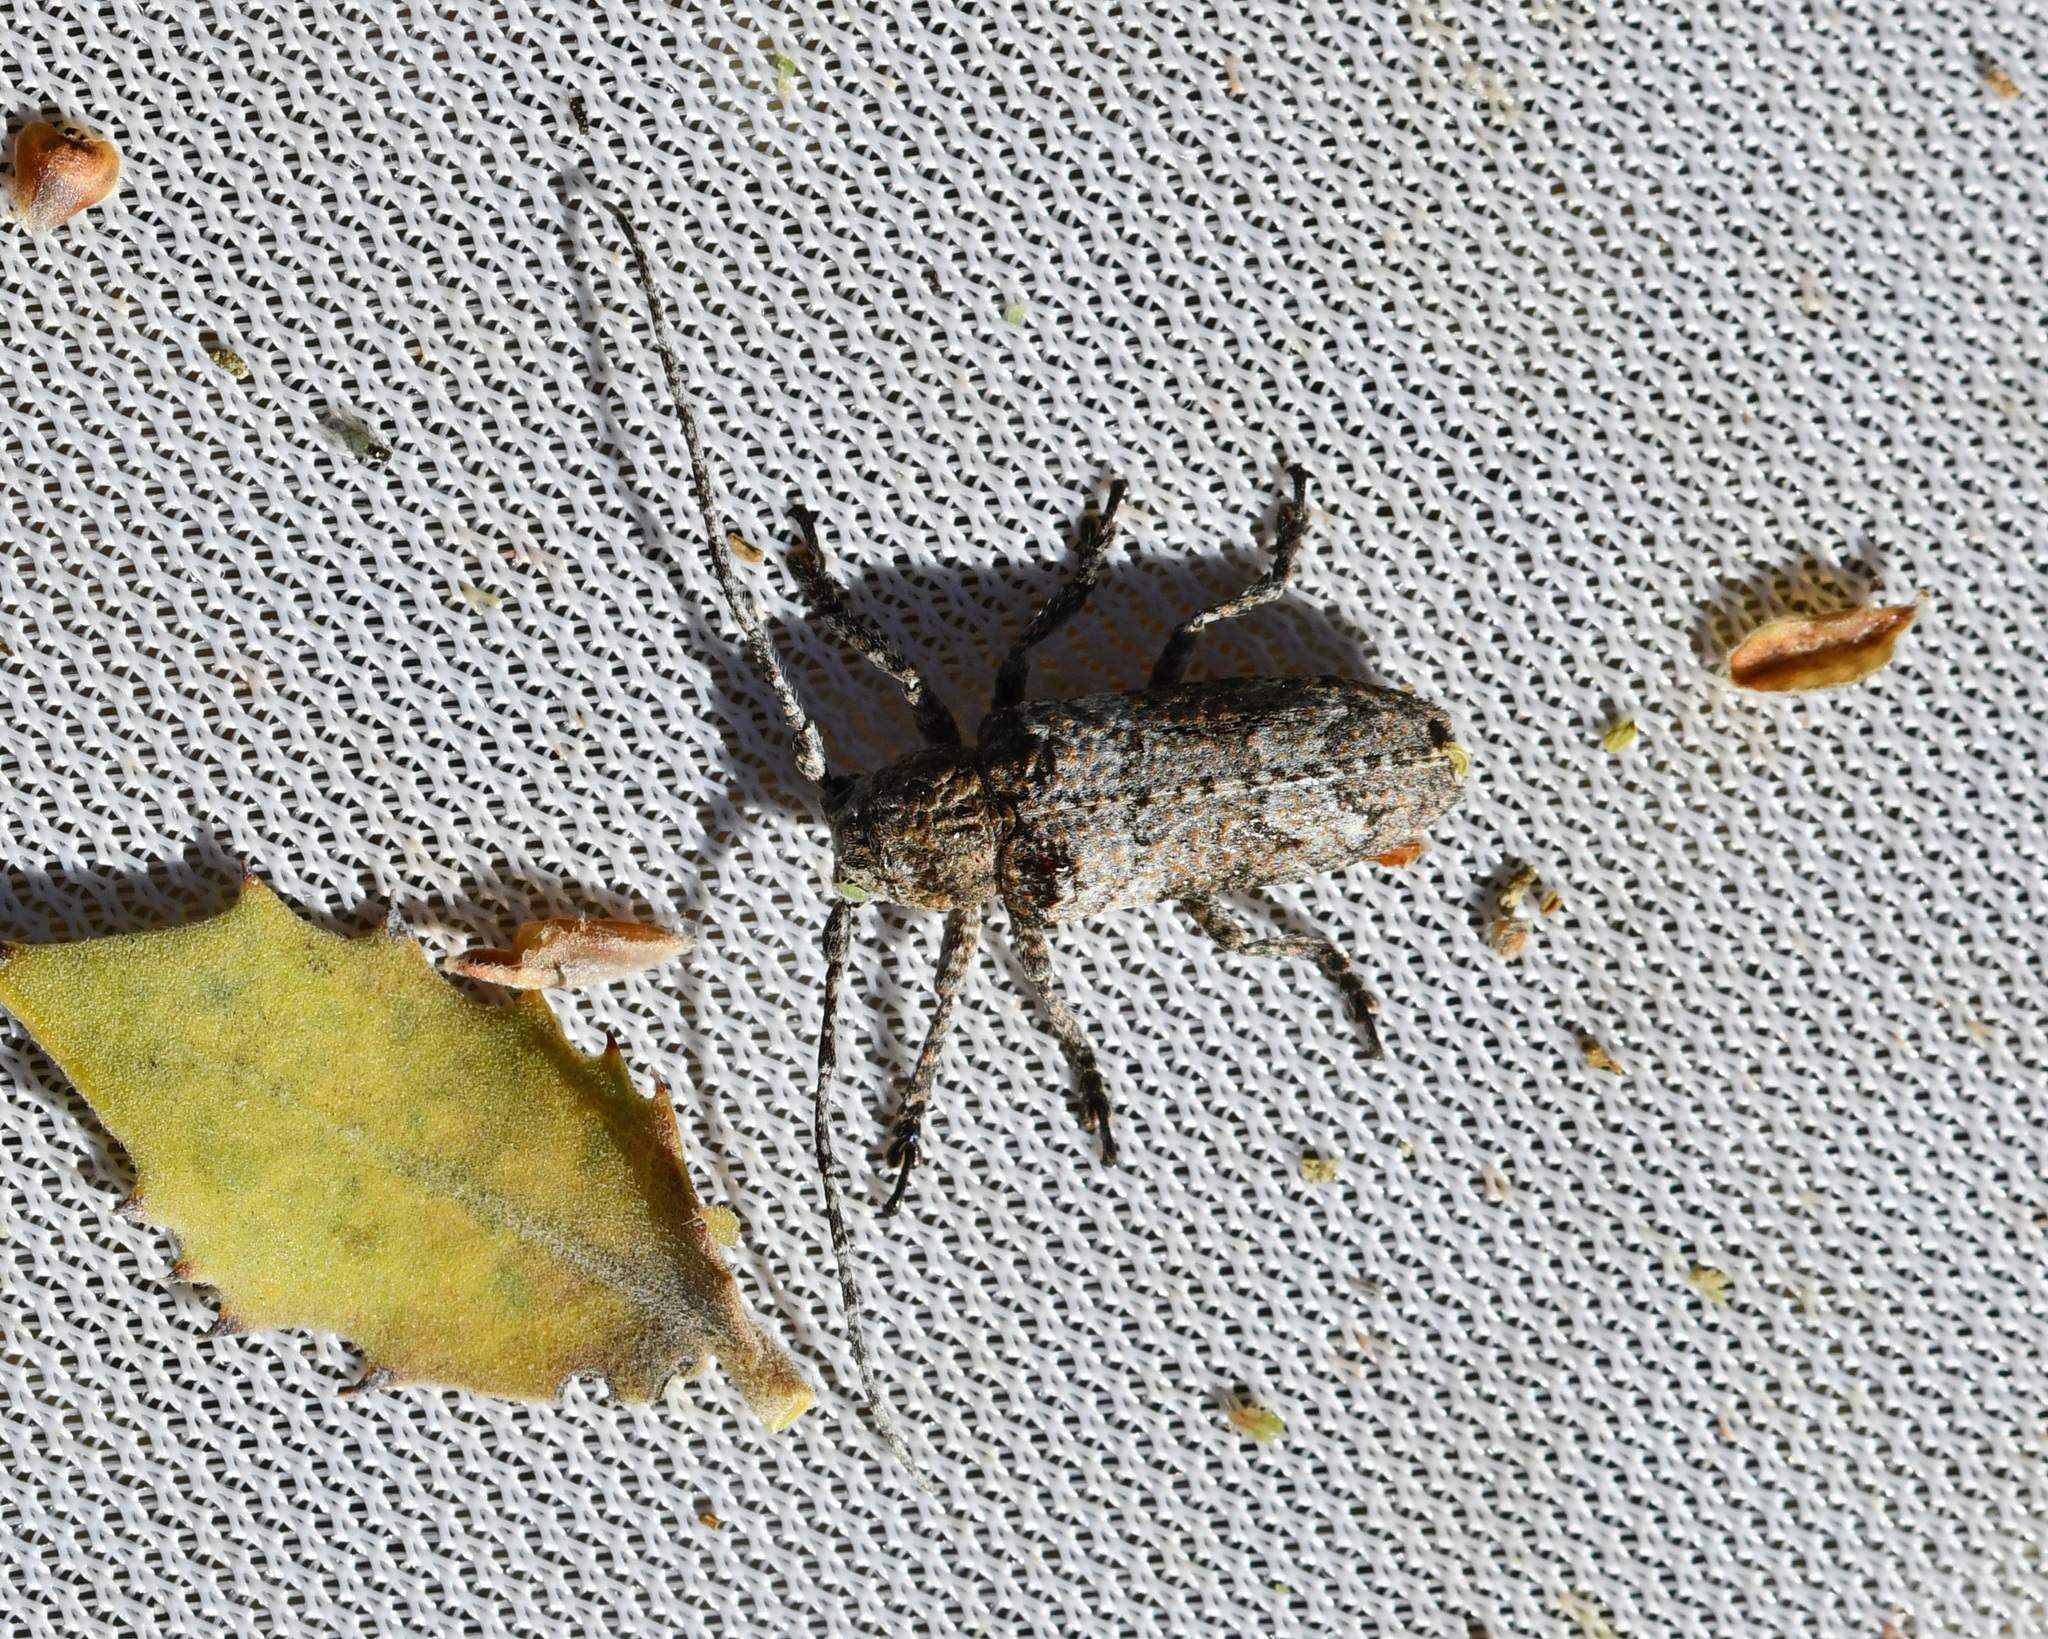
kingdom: Animalia
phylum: Arthropoda
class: Insecta
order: Coleoptera
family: Cerambycidae
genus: Niphona
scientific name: Niphona picticornis
